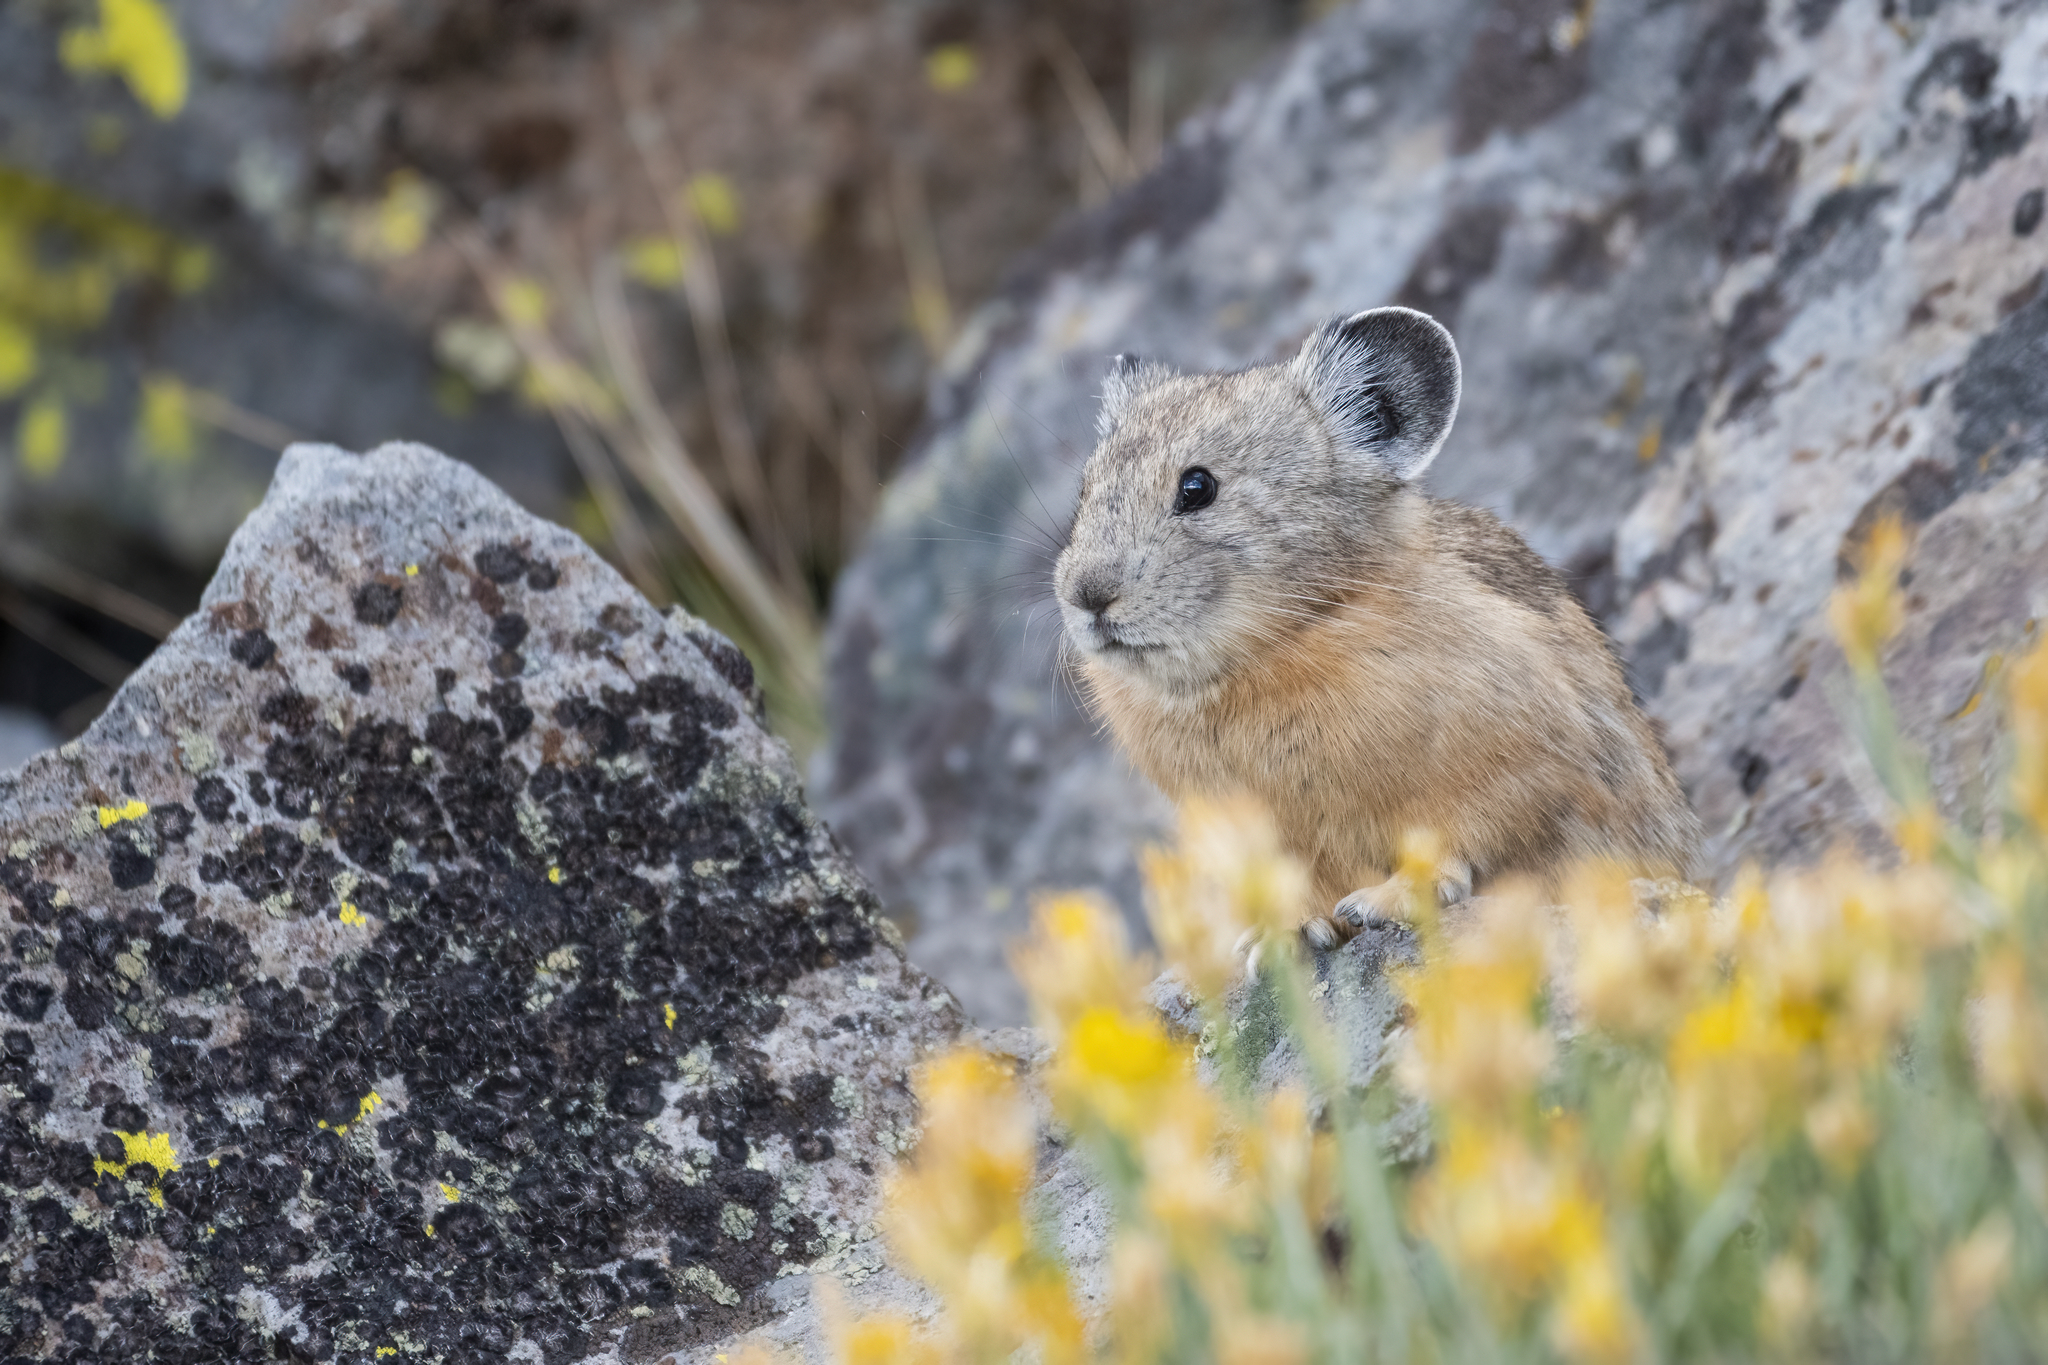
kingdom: Animalia
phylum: Chordata
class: Mammalia
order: Lagomorpha
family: Ochotonidae
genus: Ochotona
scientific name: Ochotona princeps
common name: American pika
